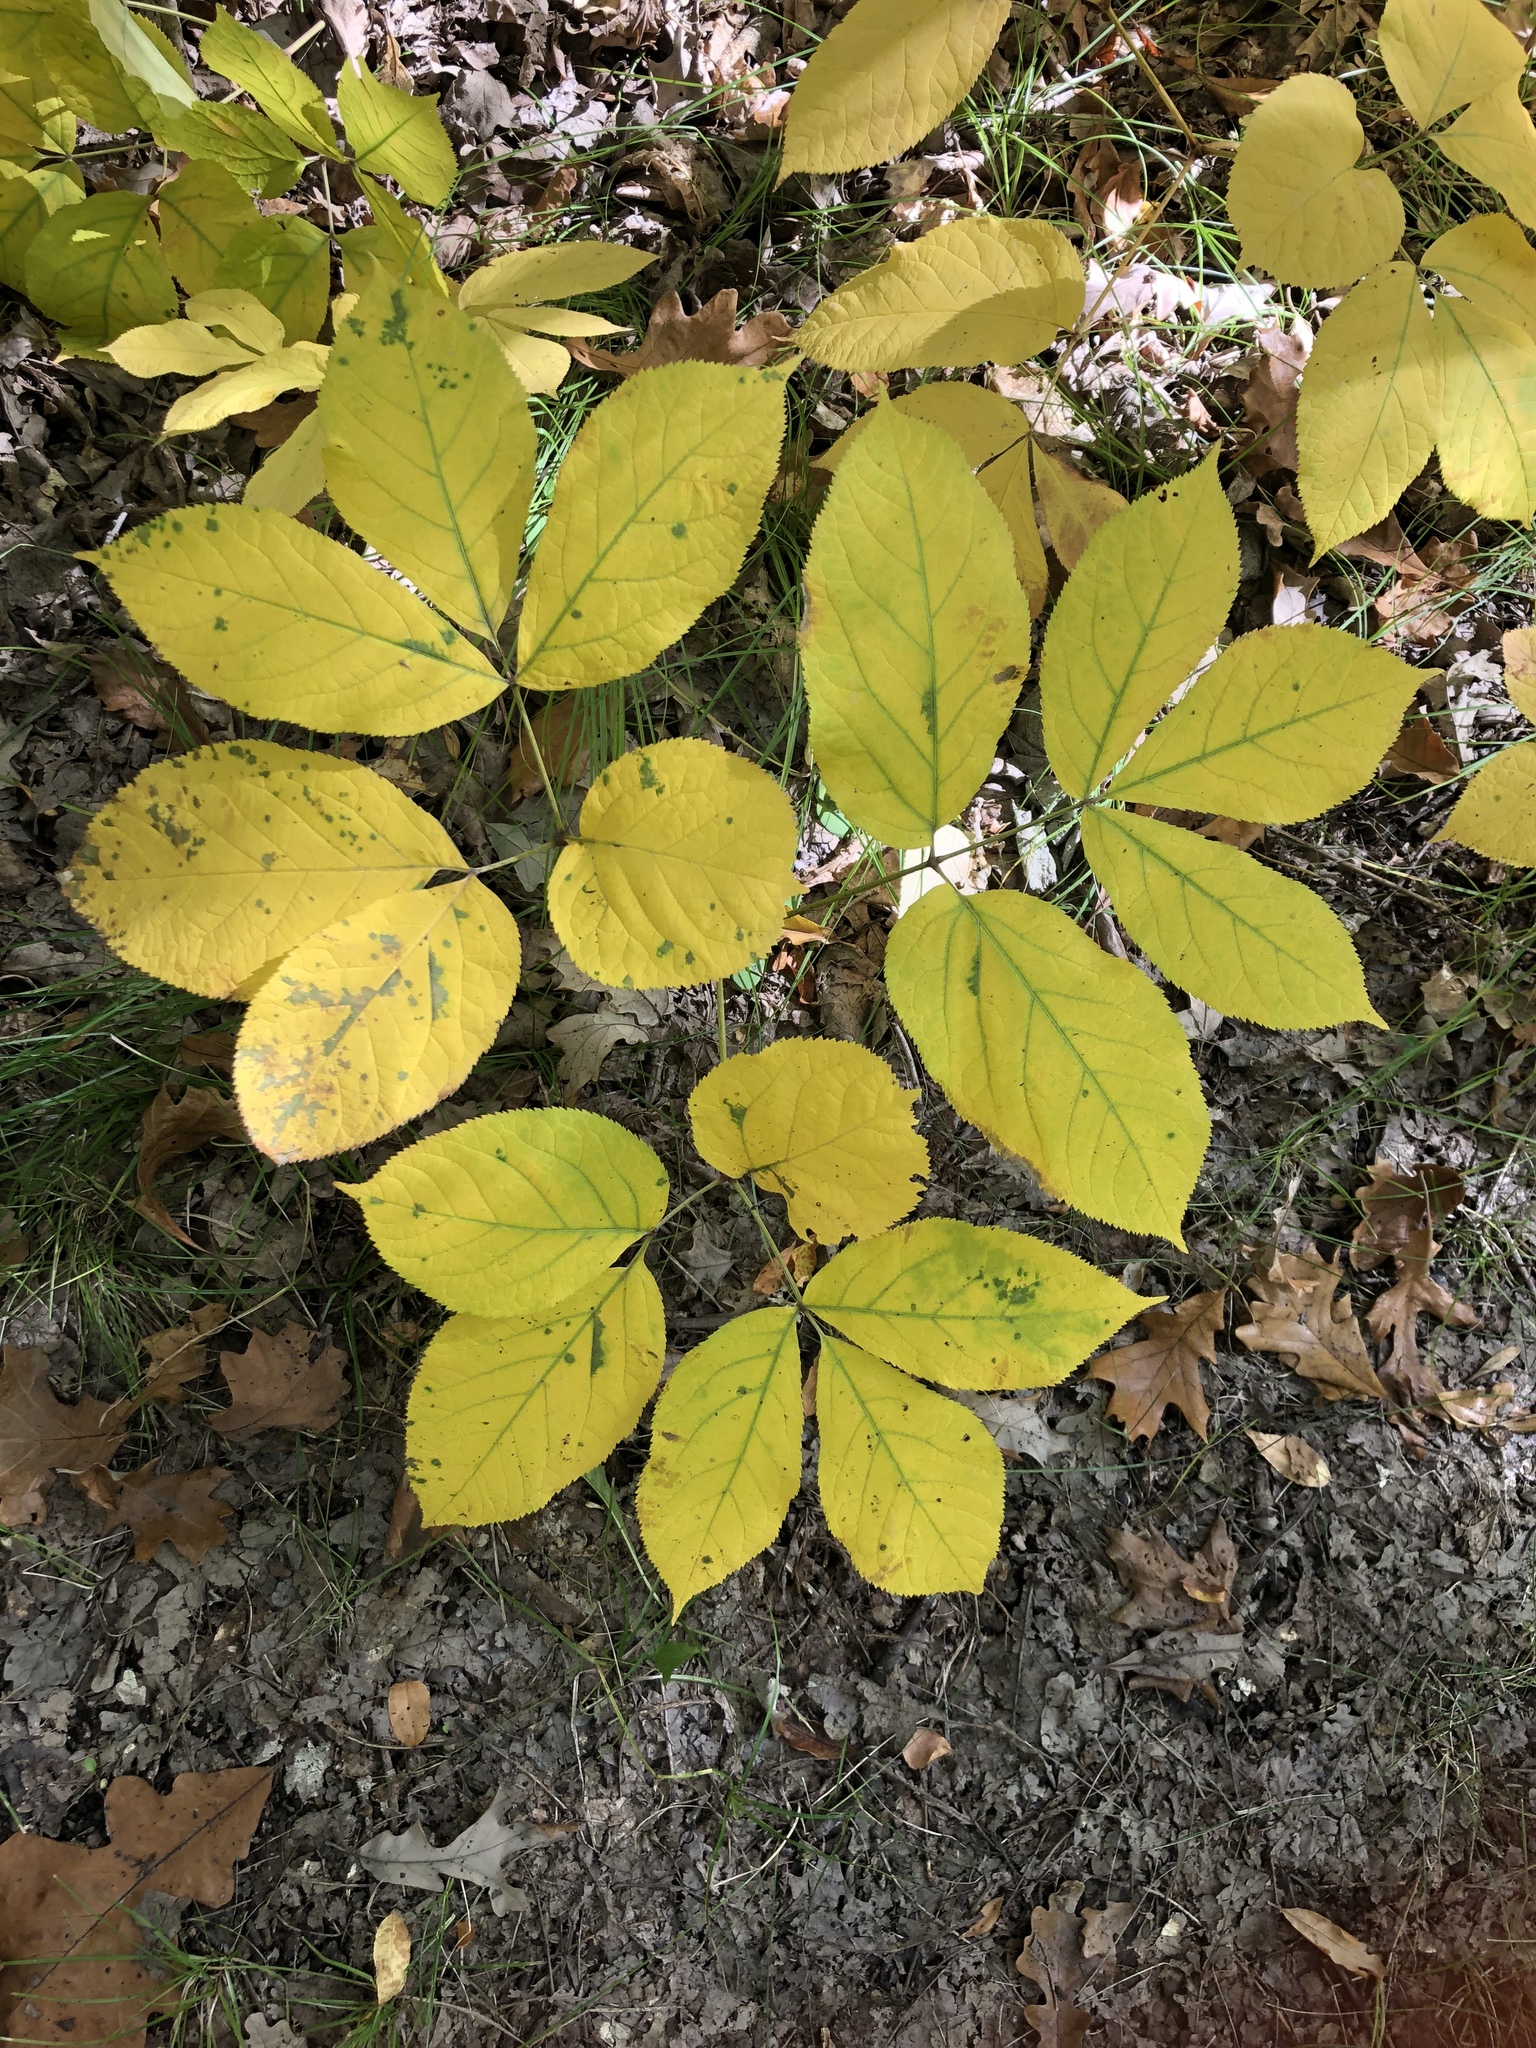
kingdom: Plantae
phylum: Tracheophyta
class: Magnoliopsida
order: Apiales
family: Araliaceae
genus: Aralia
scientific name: Aralia nudicaulis
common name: Wild sarsaparilla
